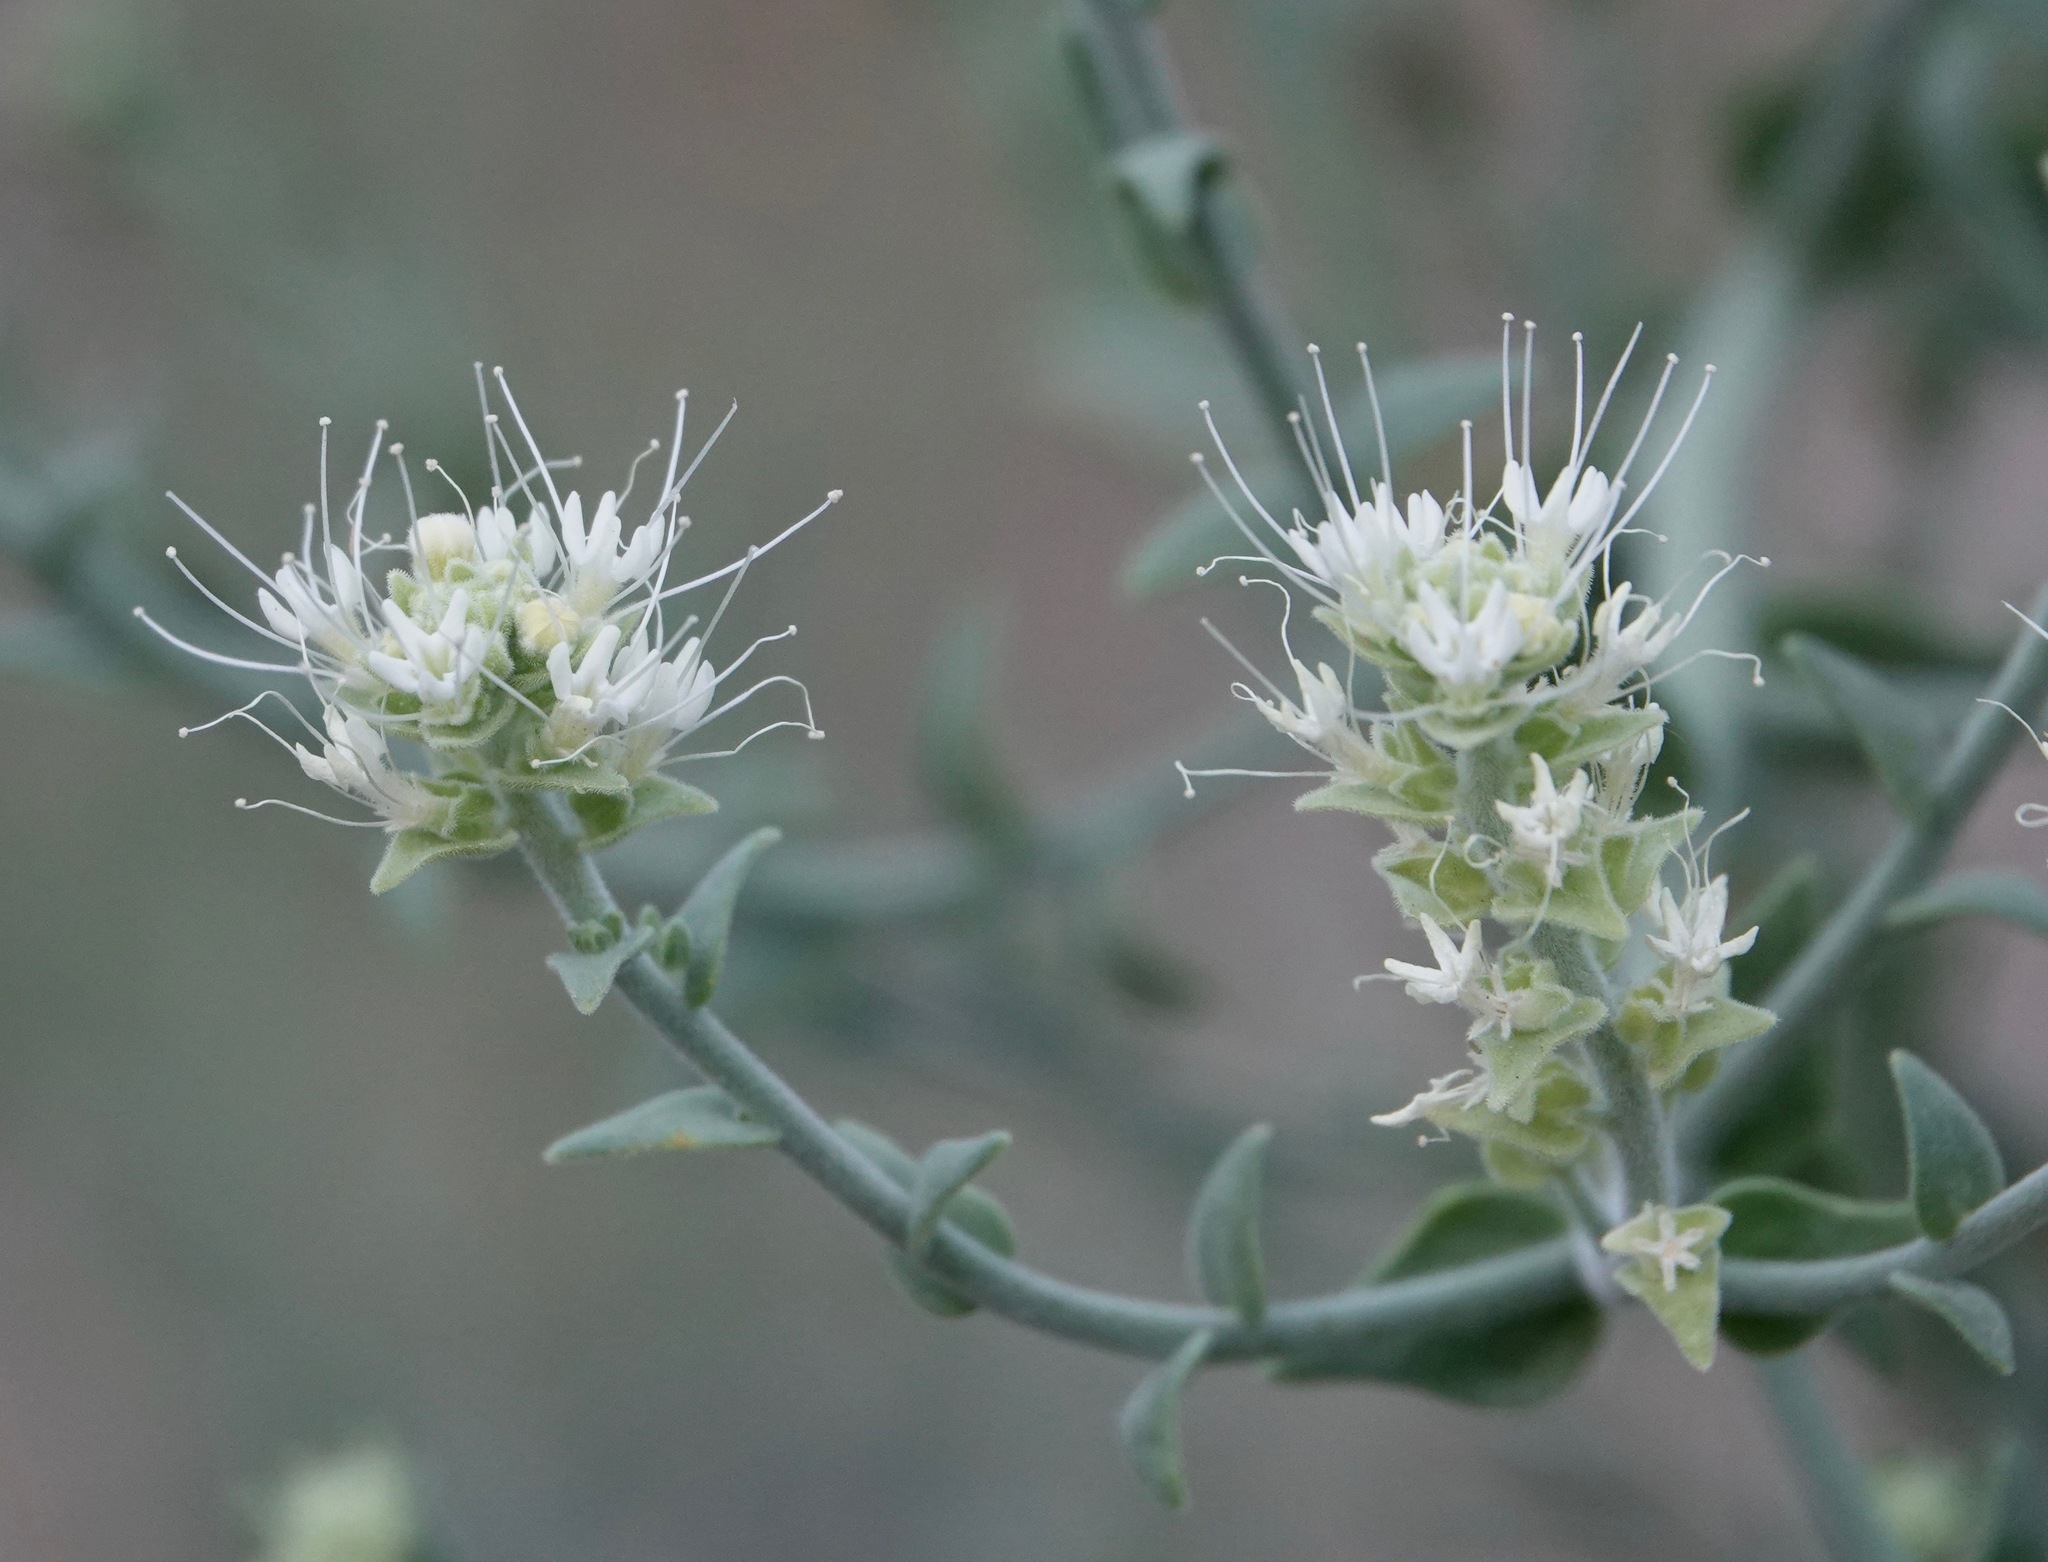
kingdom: Plantae
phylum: Tracheophyta
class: Magnoliopsida
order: Cornales
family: Loasaceae
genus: Petalonyx
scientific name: Petalonyx thurberi
